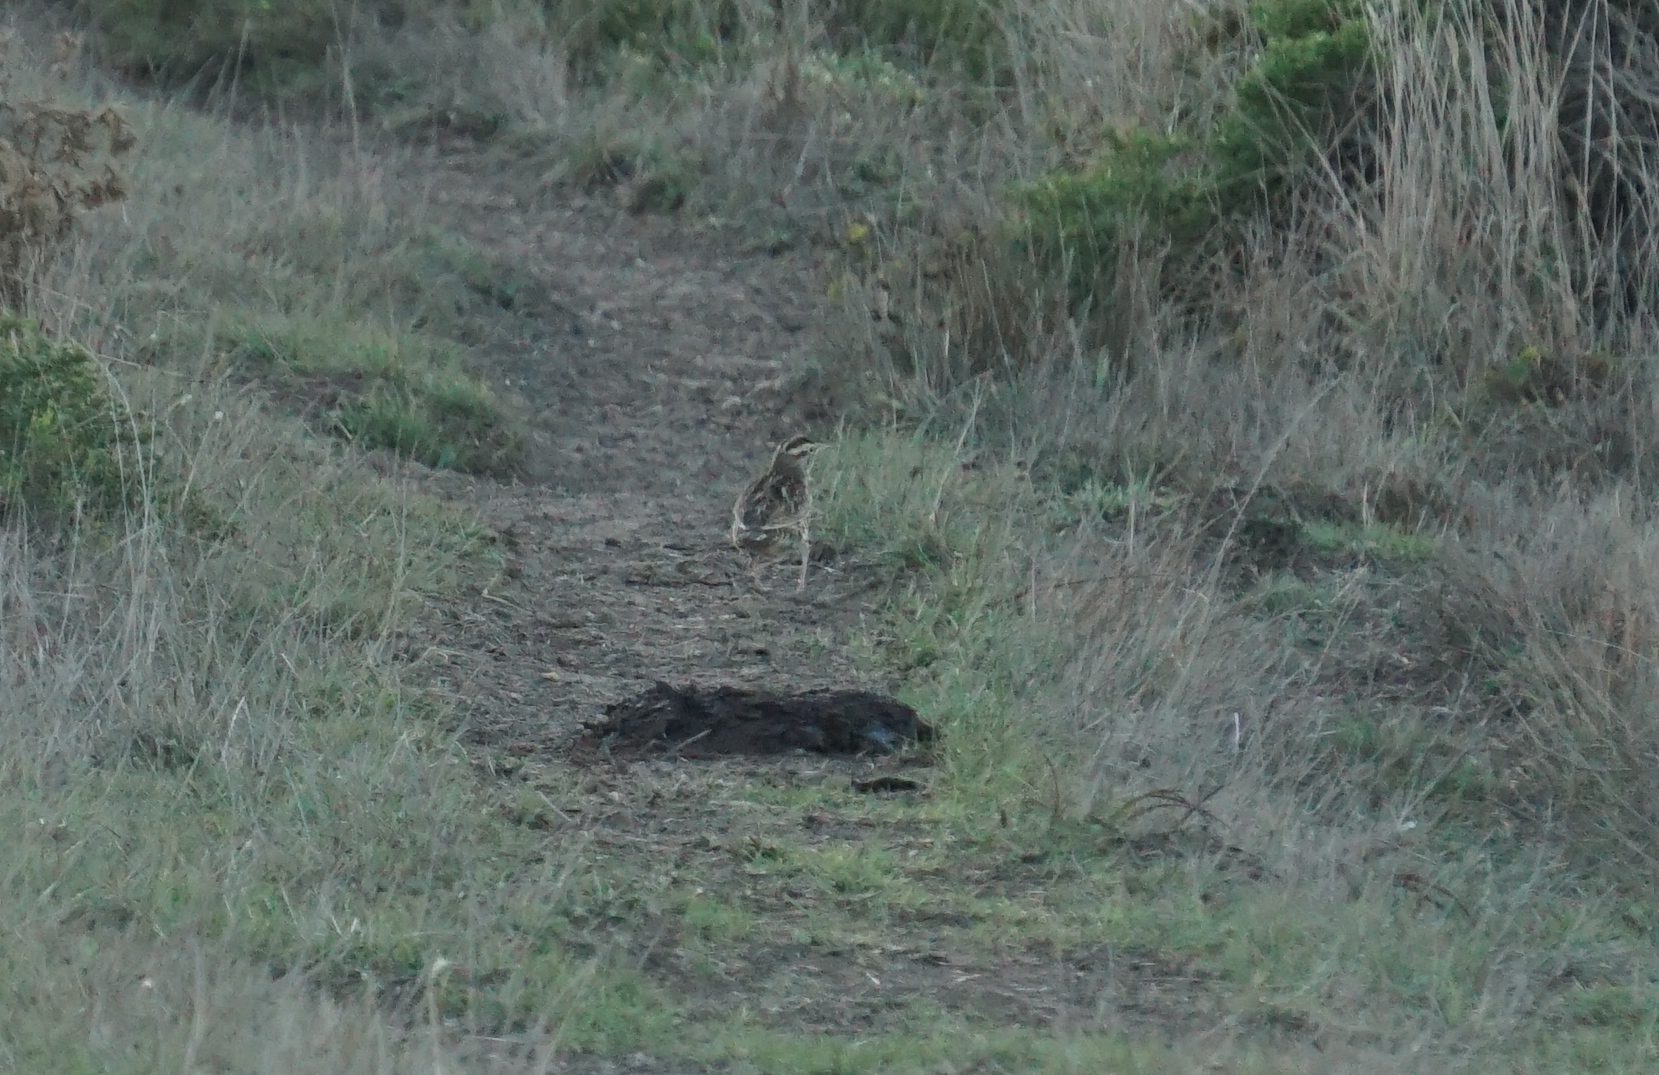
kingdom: Animalia
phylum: Chordata
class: Aves
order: Passeriformes
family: Icteridae
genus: Sturnella
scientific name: Sturnella neglecta
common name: Western meadowlark
